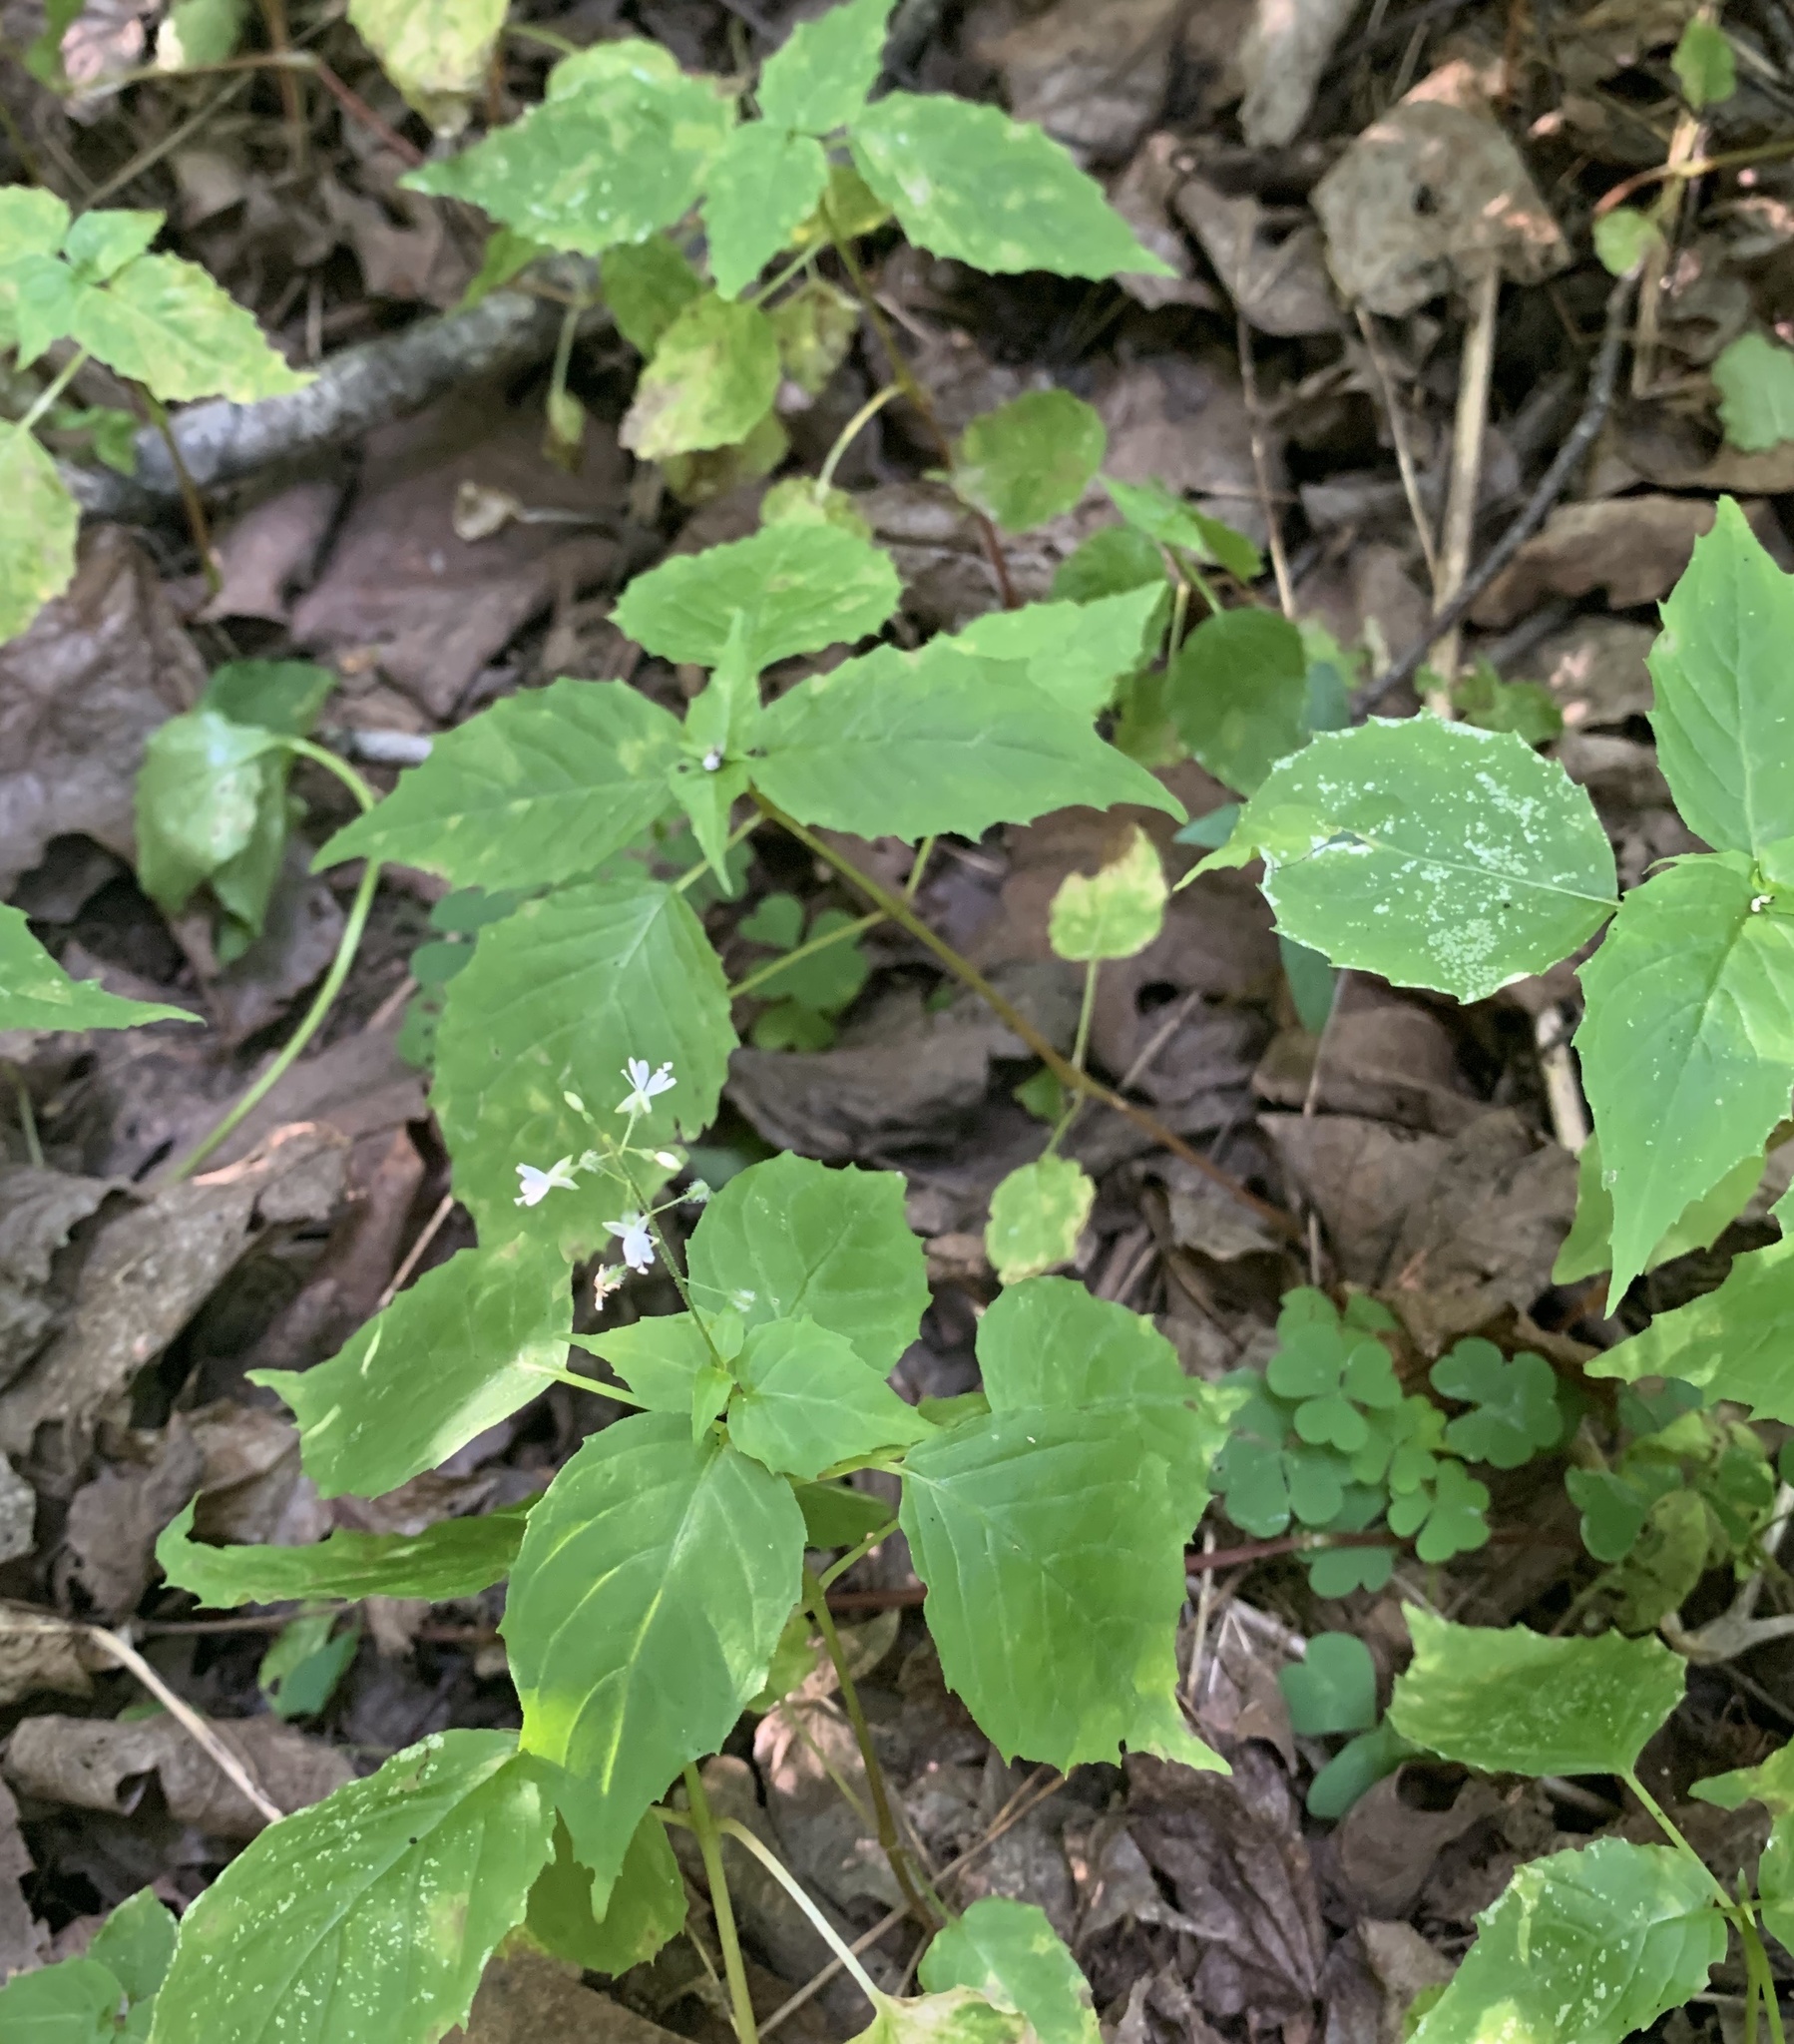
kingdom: Plantae
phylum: Tracheophyta
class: Magnoliopsida
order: Myrtales
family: Onagraceae
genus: Circaea
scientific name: Circaea alpina
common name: Alpine enchanter's-nightshade
